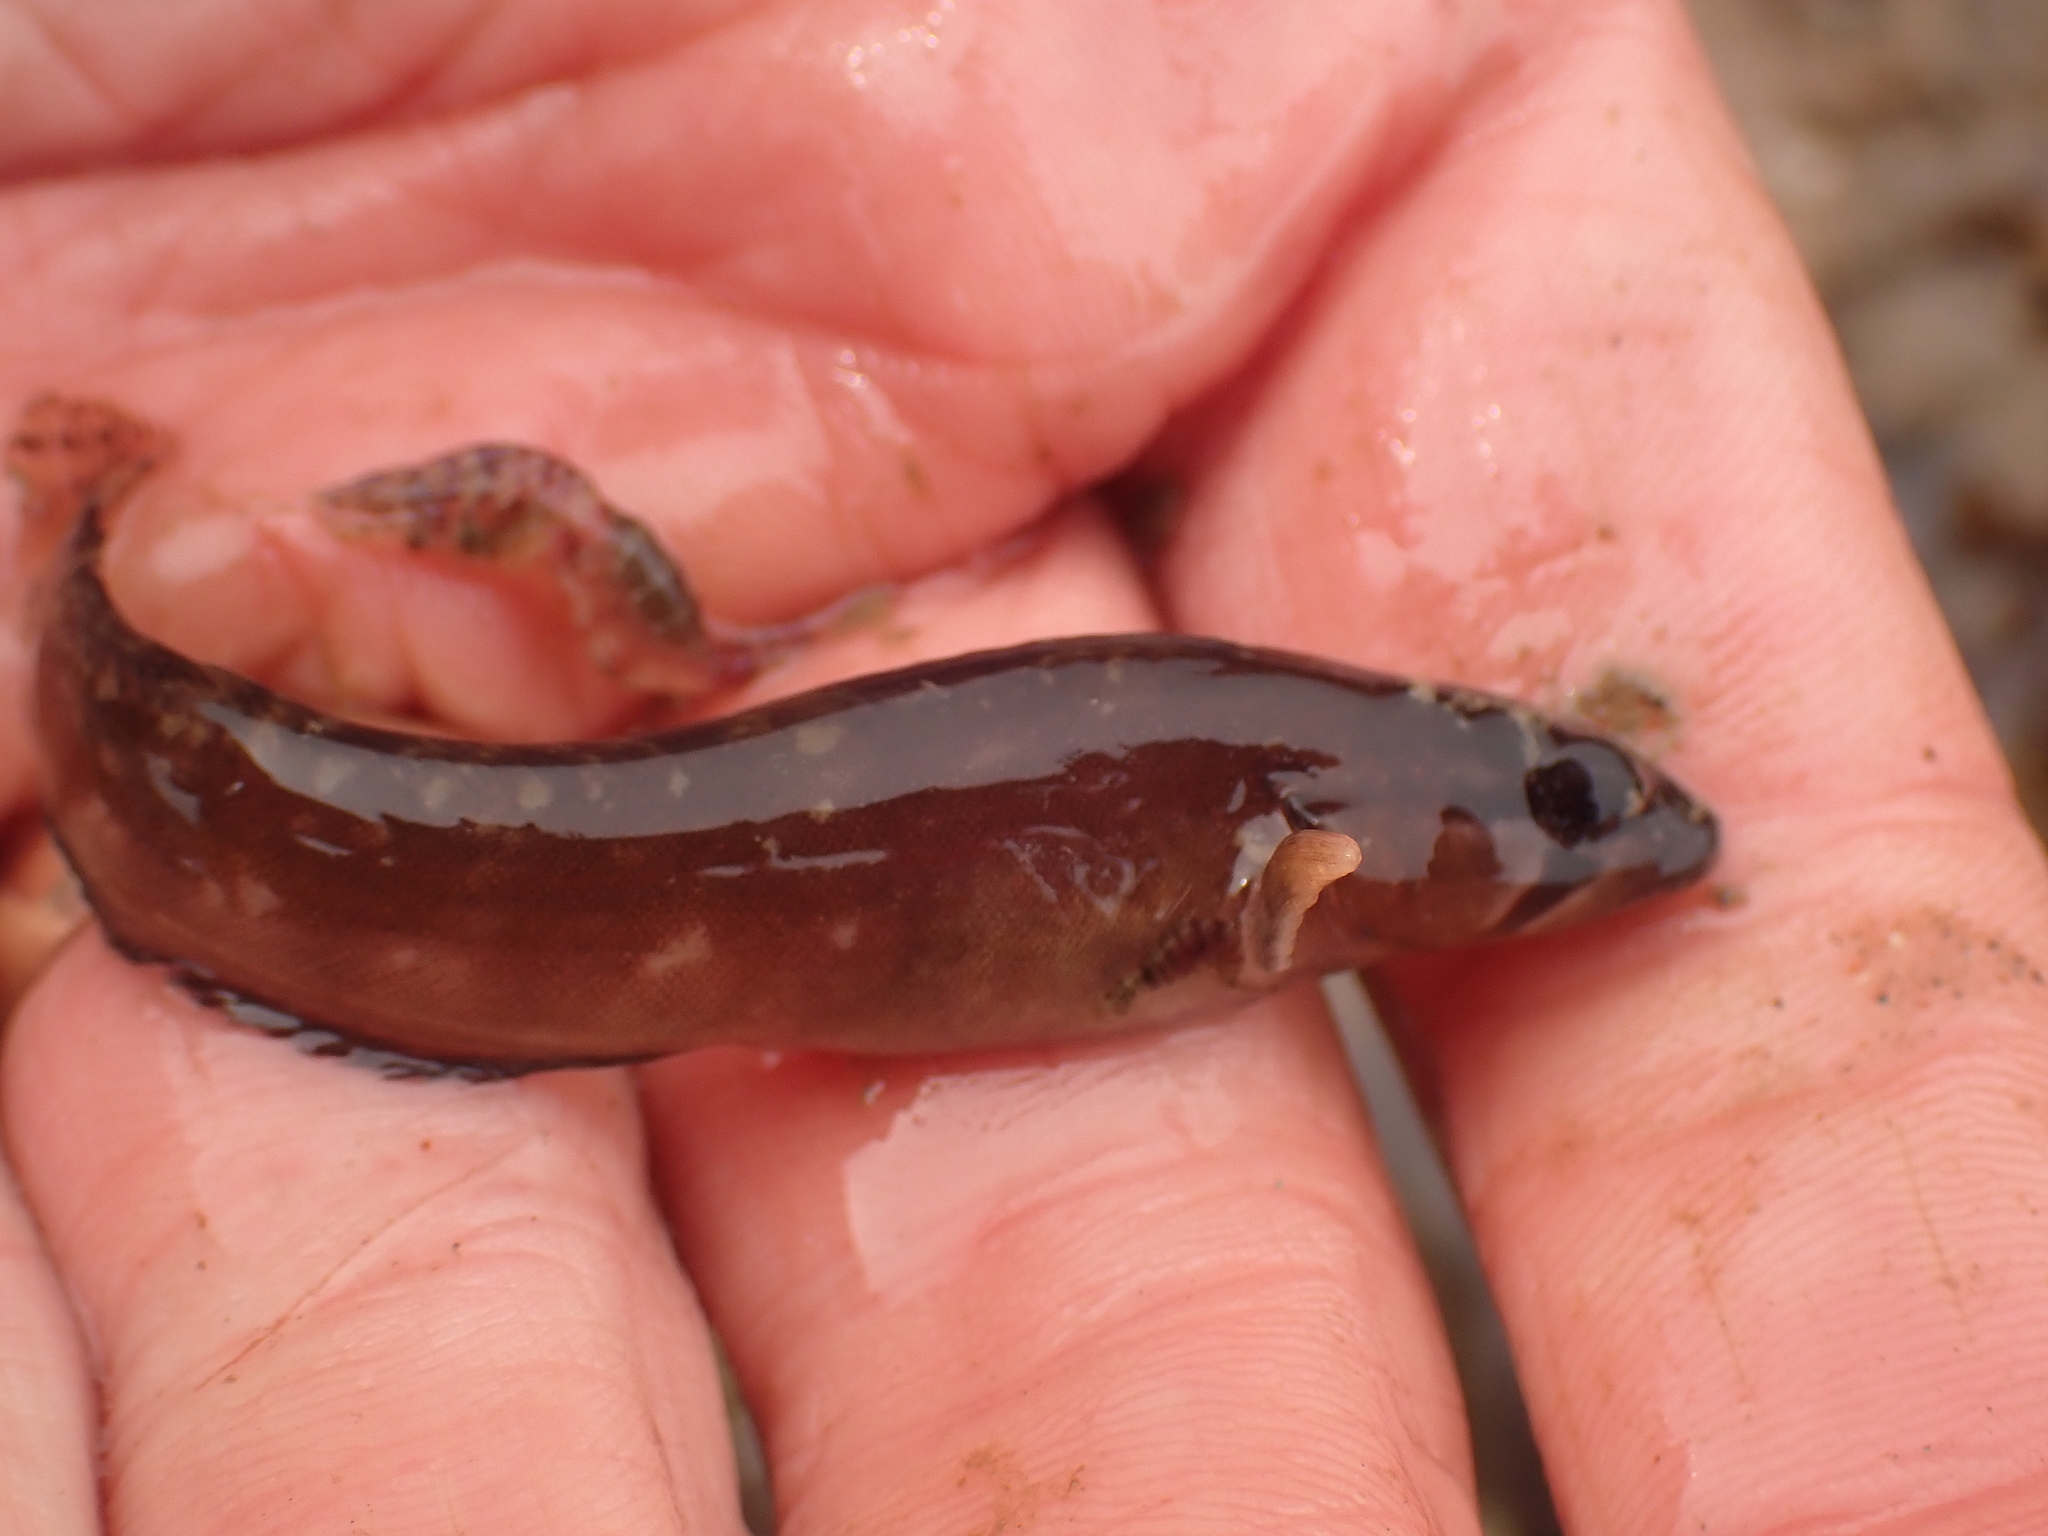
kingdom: Animalia
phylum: Chordata
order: Perciformes
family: Stichaeidae
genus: Ulvaria
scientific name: Ulvaria subbifurcata
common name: Radiated shanny
